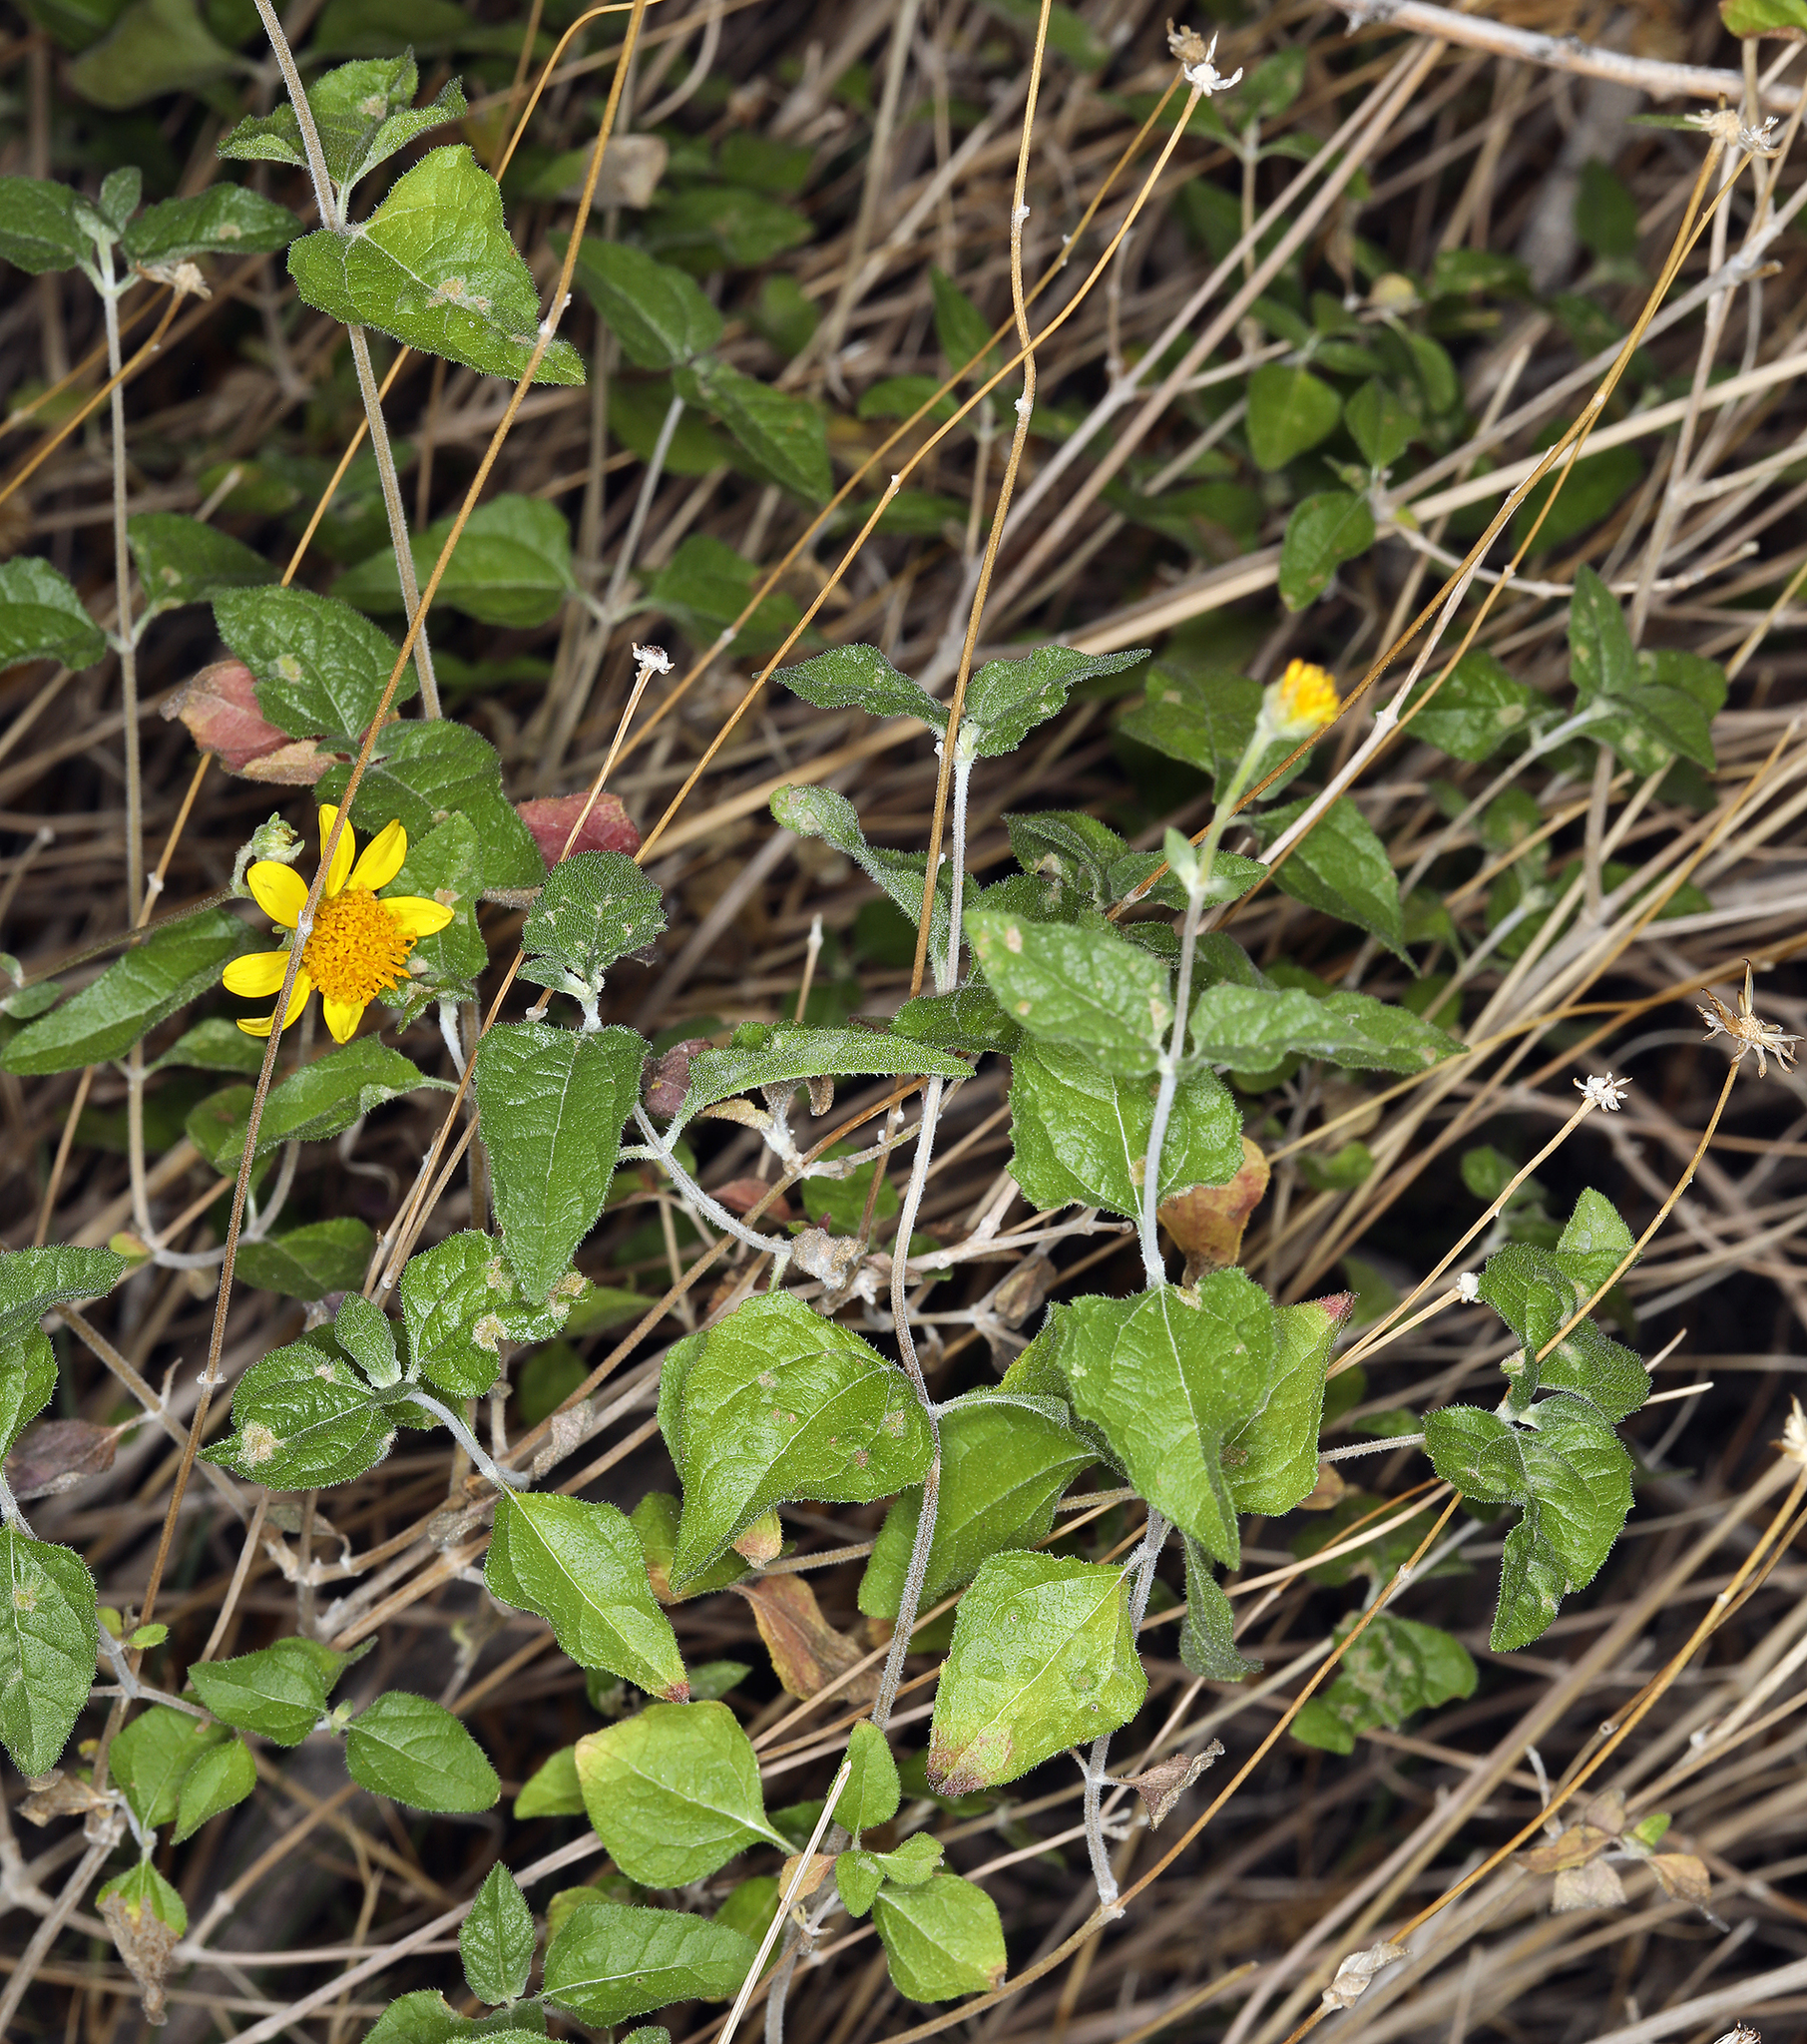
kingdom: Plantae
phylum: Tracheophyta
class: Magnoliopsida
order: Asterales
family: Asteraceae
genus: Bahiopsis
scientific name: Bahiopsis parishii
